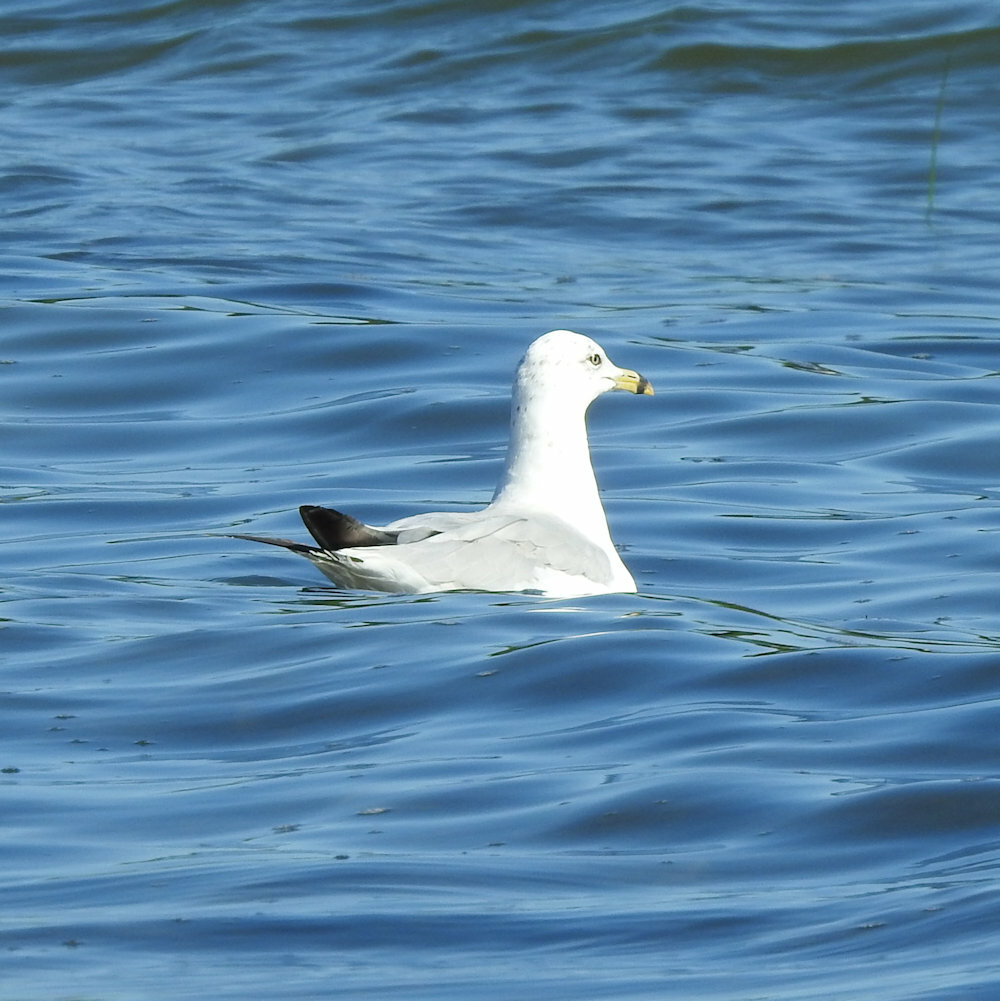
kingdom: Animalia
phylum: Chordata
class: Aves
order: Charadriiformes
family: Laridae
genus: Larus
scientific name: Larus delawarensis
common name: Ring-billed gull
